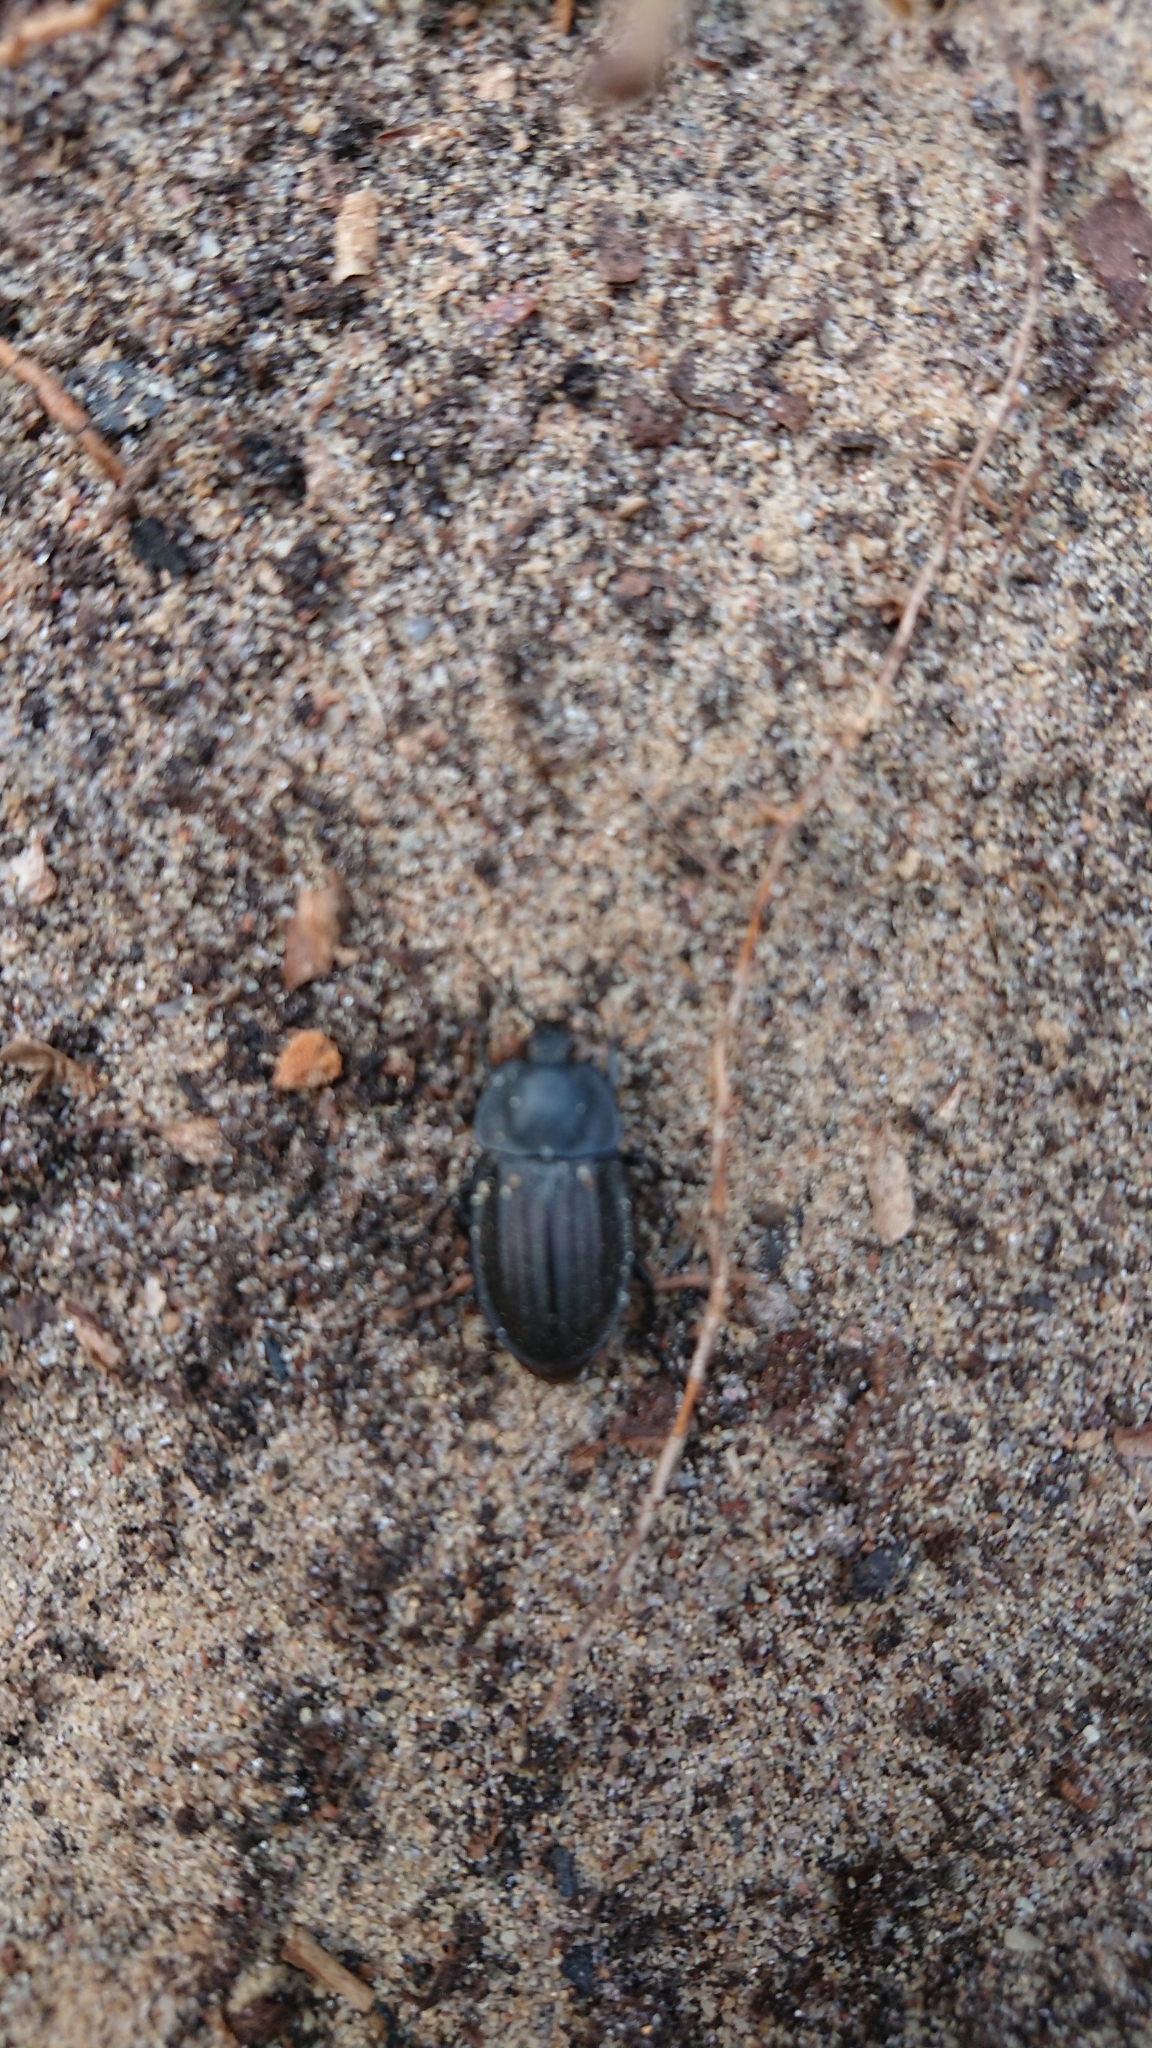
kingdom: Animalia
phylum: Arthropoda
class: Insecta
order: Coleoptera
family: Staphylinidae
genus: Silpha
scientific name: Silpha carinata
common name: Silphid beetle
